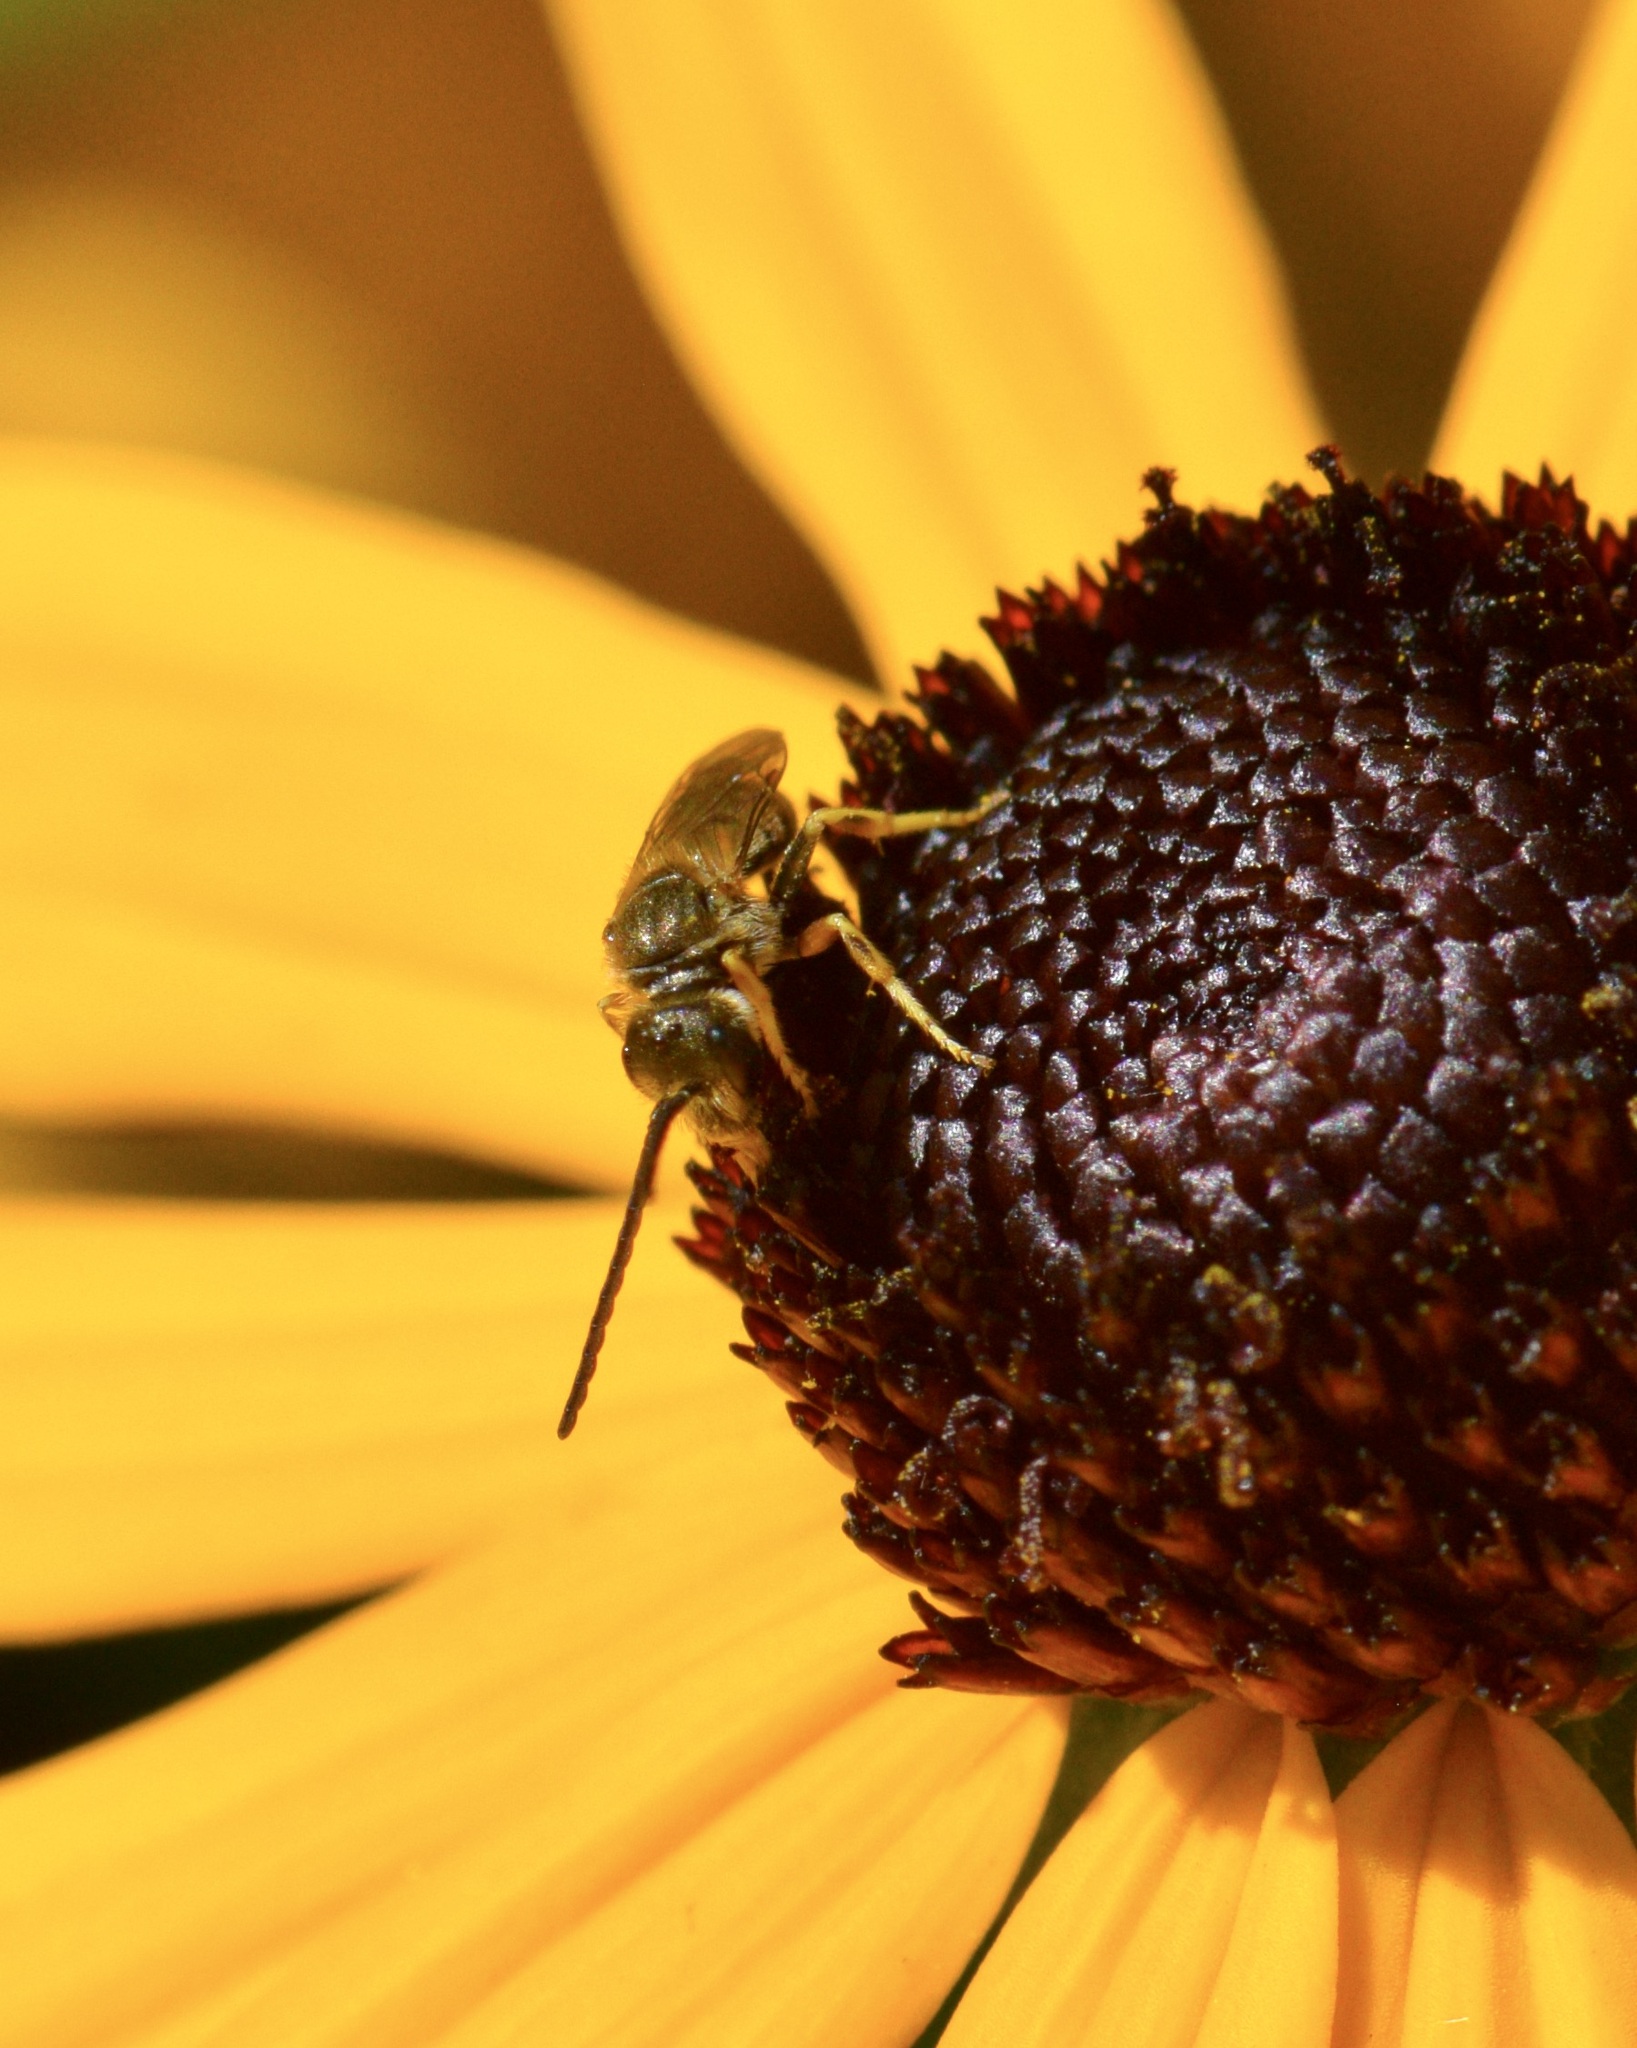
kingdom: Animalia
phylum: Arthropoda
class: Insecta
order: Hymenoptera
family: Halictidae
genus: Halictus
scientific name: Halictus confusus
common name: Southern bronze furrow bee
